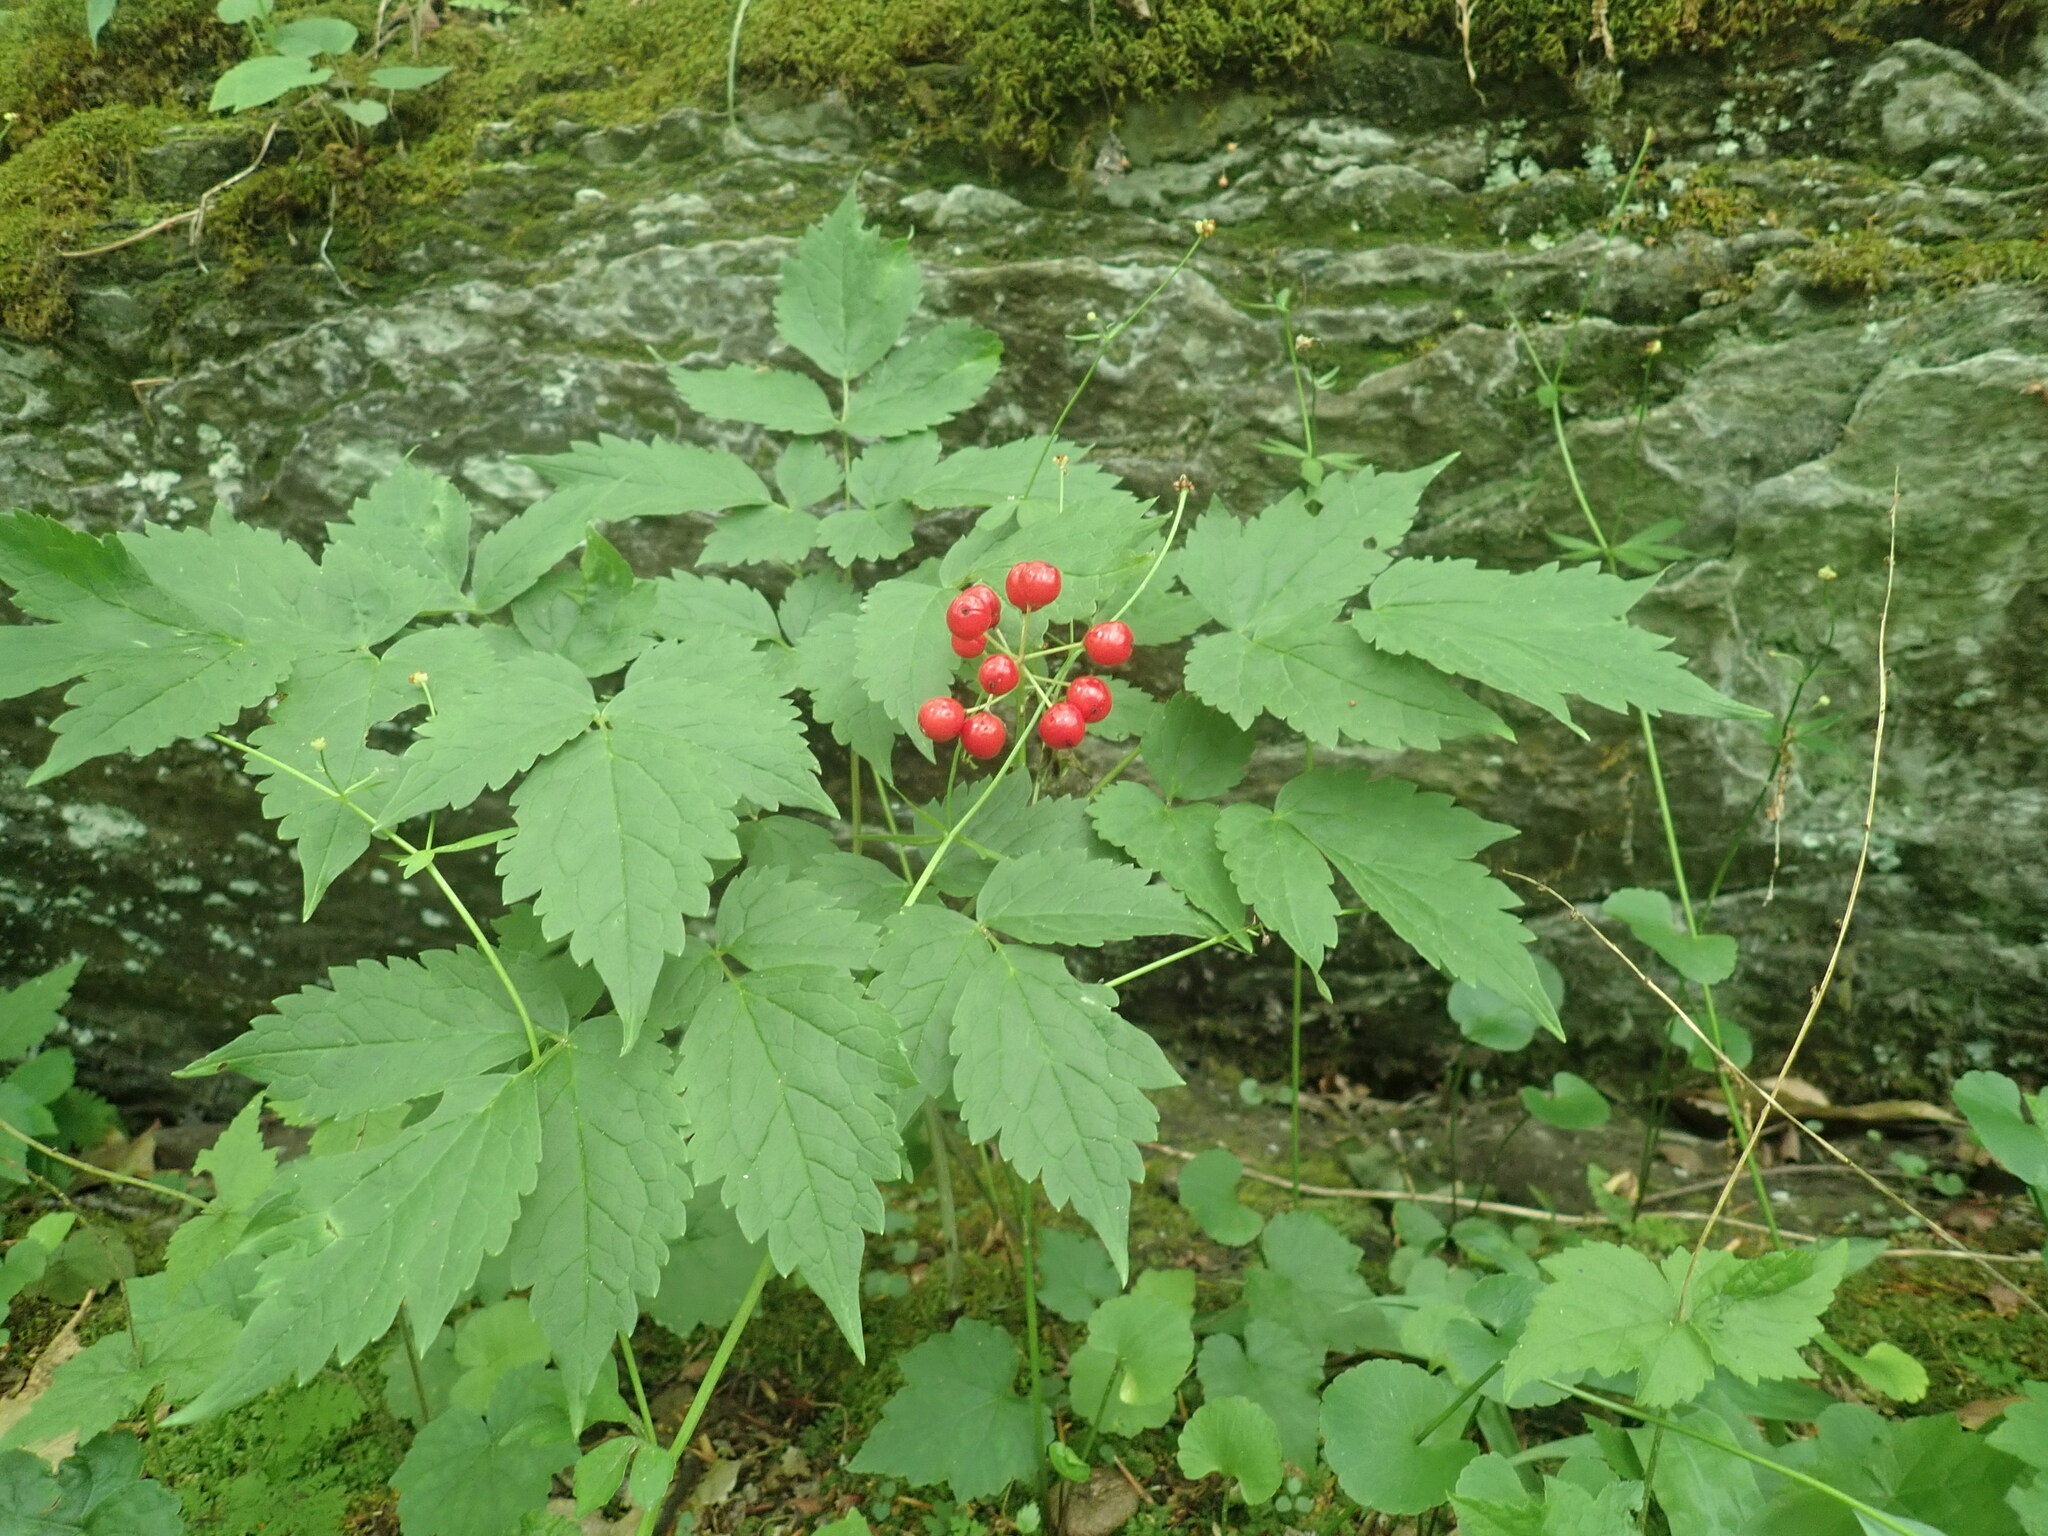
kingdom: Plantae
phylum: Tracheophyta
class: Magnoliopsida
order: Ranunculales
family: Ranunculaceae
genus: Actaea
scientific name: Actaea rubra
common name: Red baneberry
